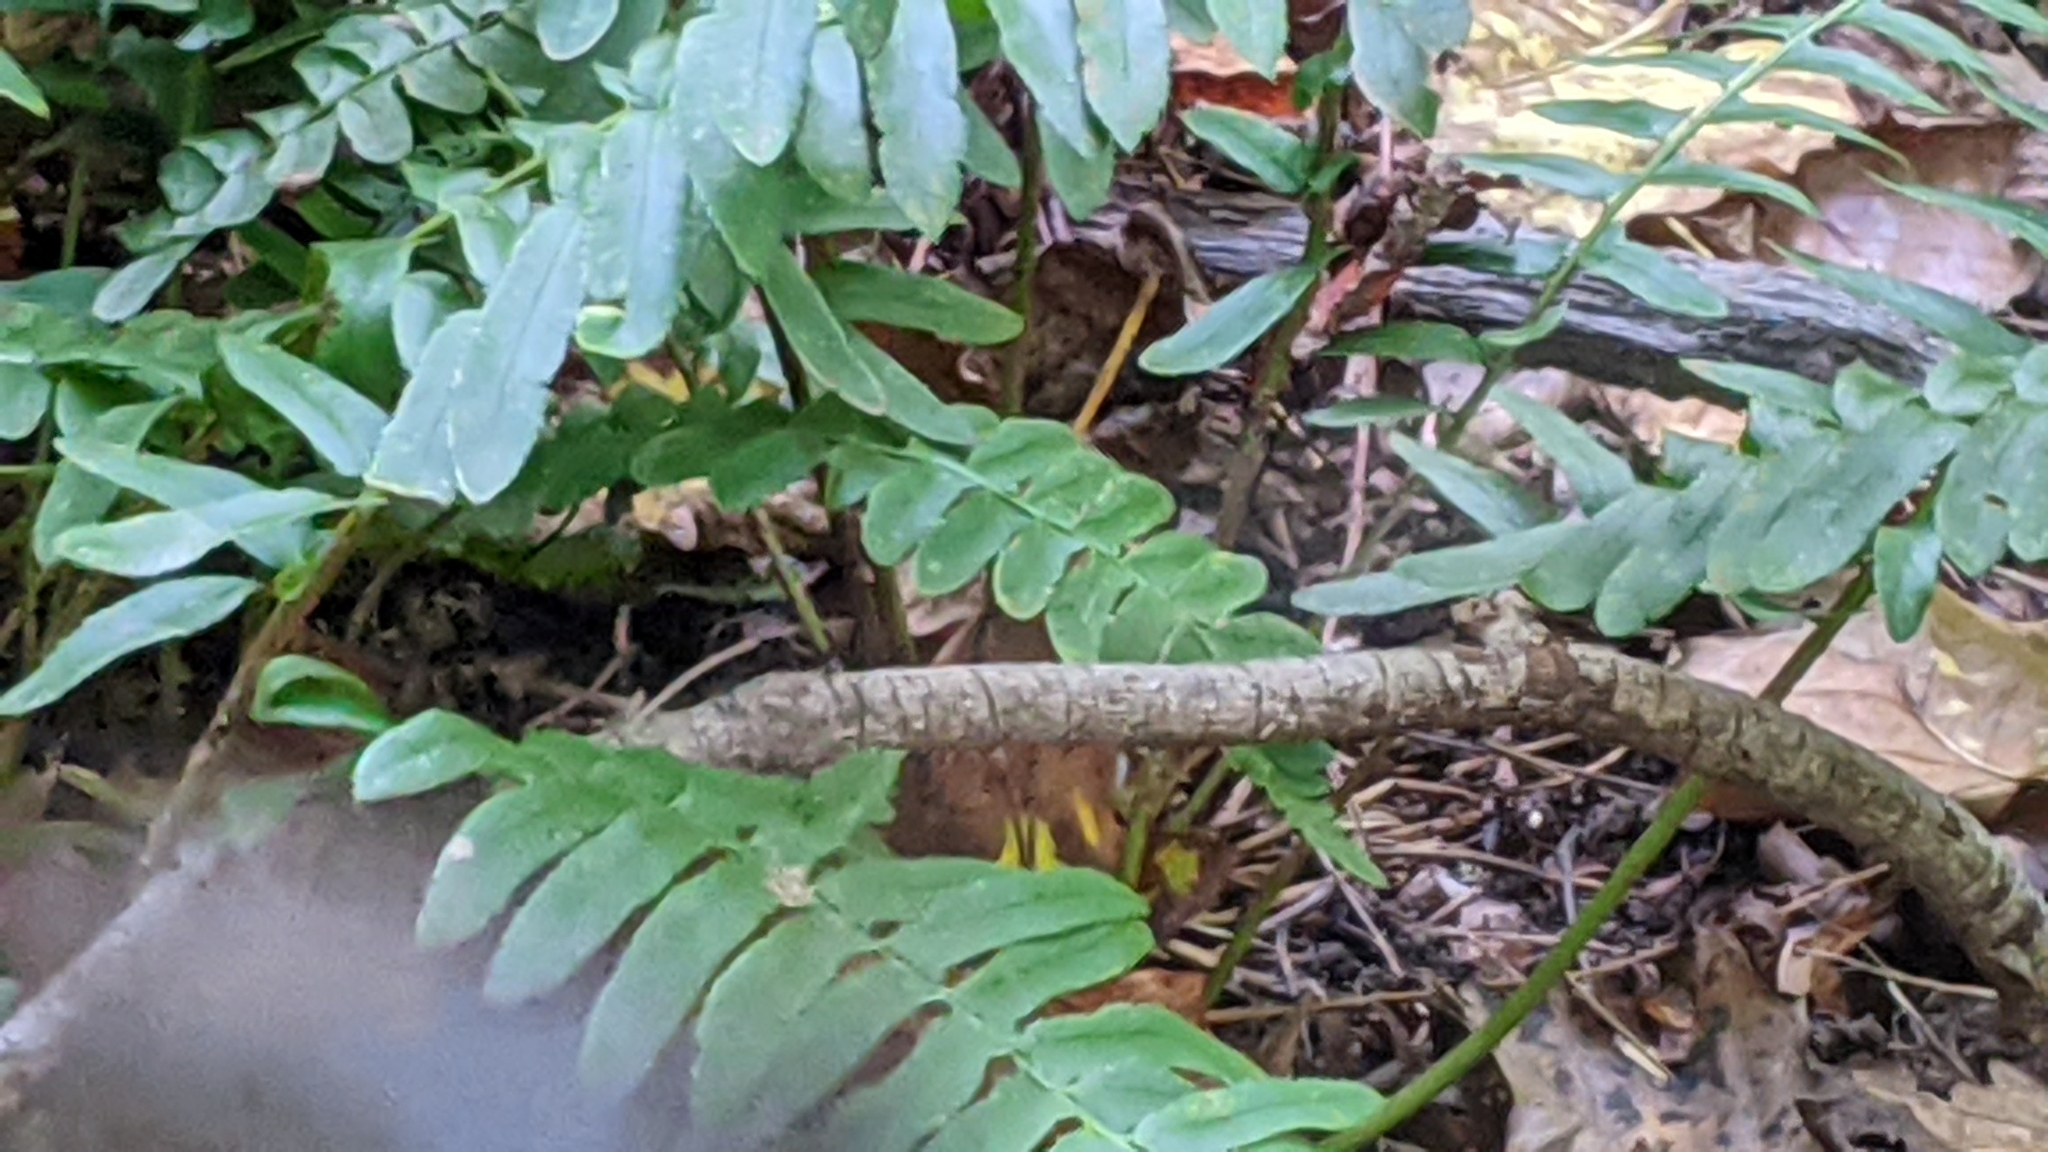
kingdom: Plantae
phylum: Tracheophyta
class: Polypodiopsida
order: Polypodiales
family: Dryopteridaceae
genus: Polystichum
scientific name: Polystichum acrostichoides
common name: Christmas fern
